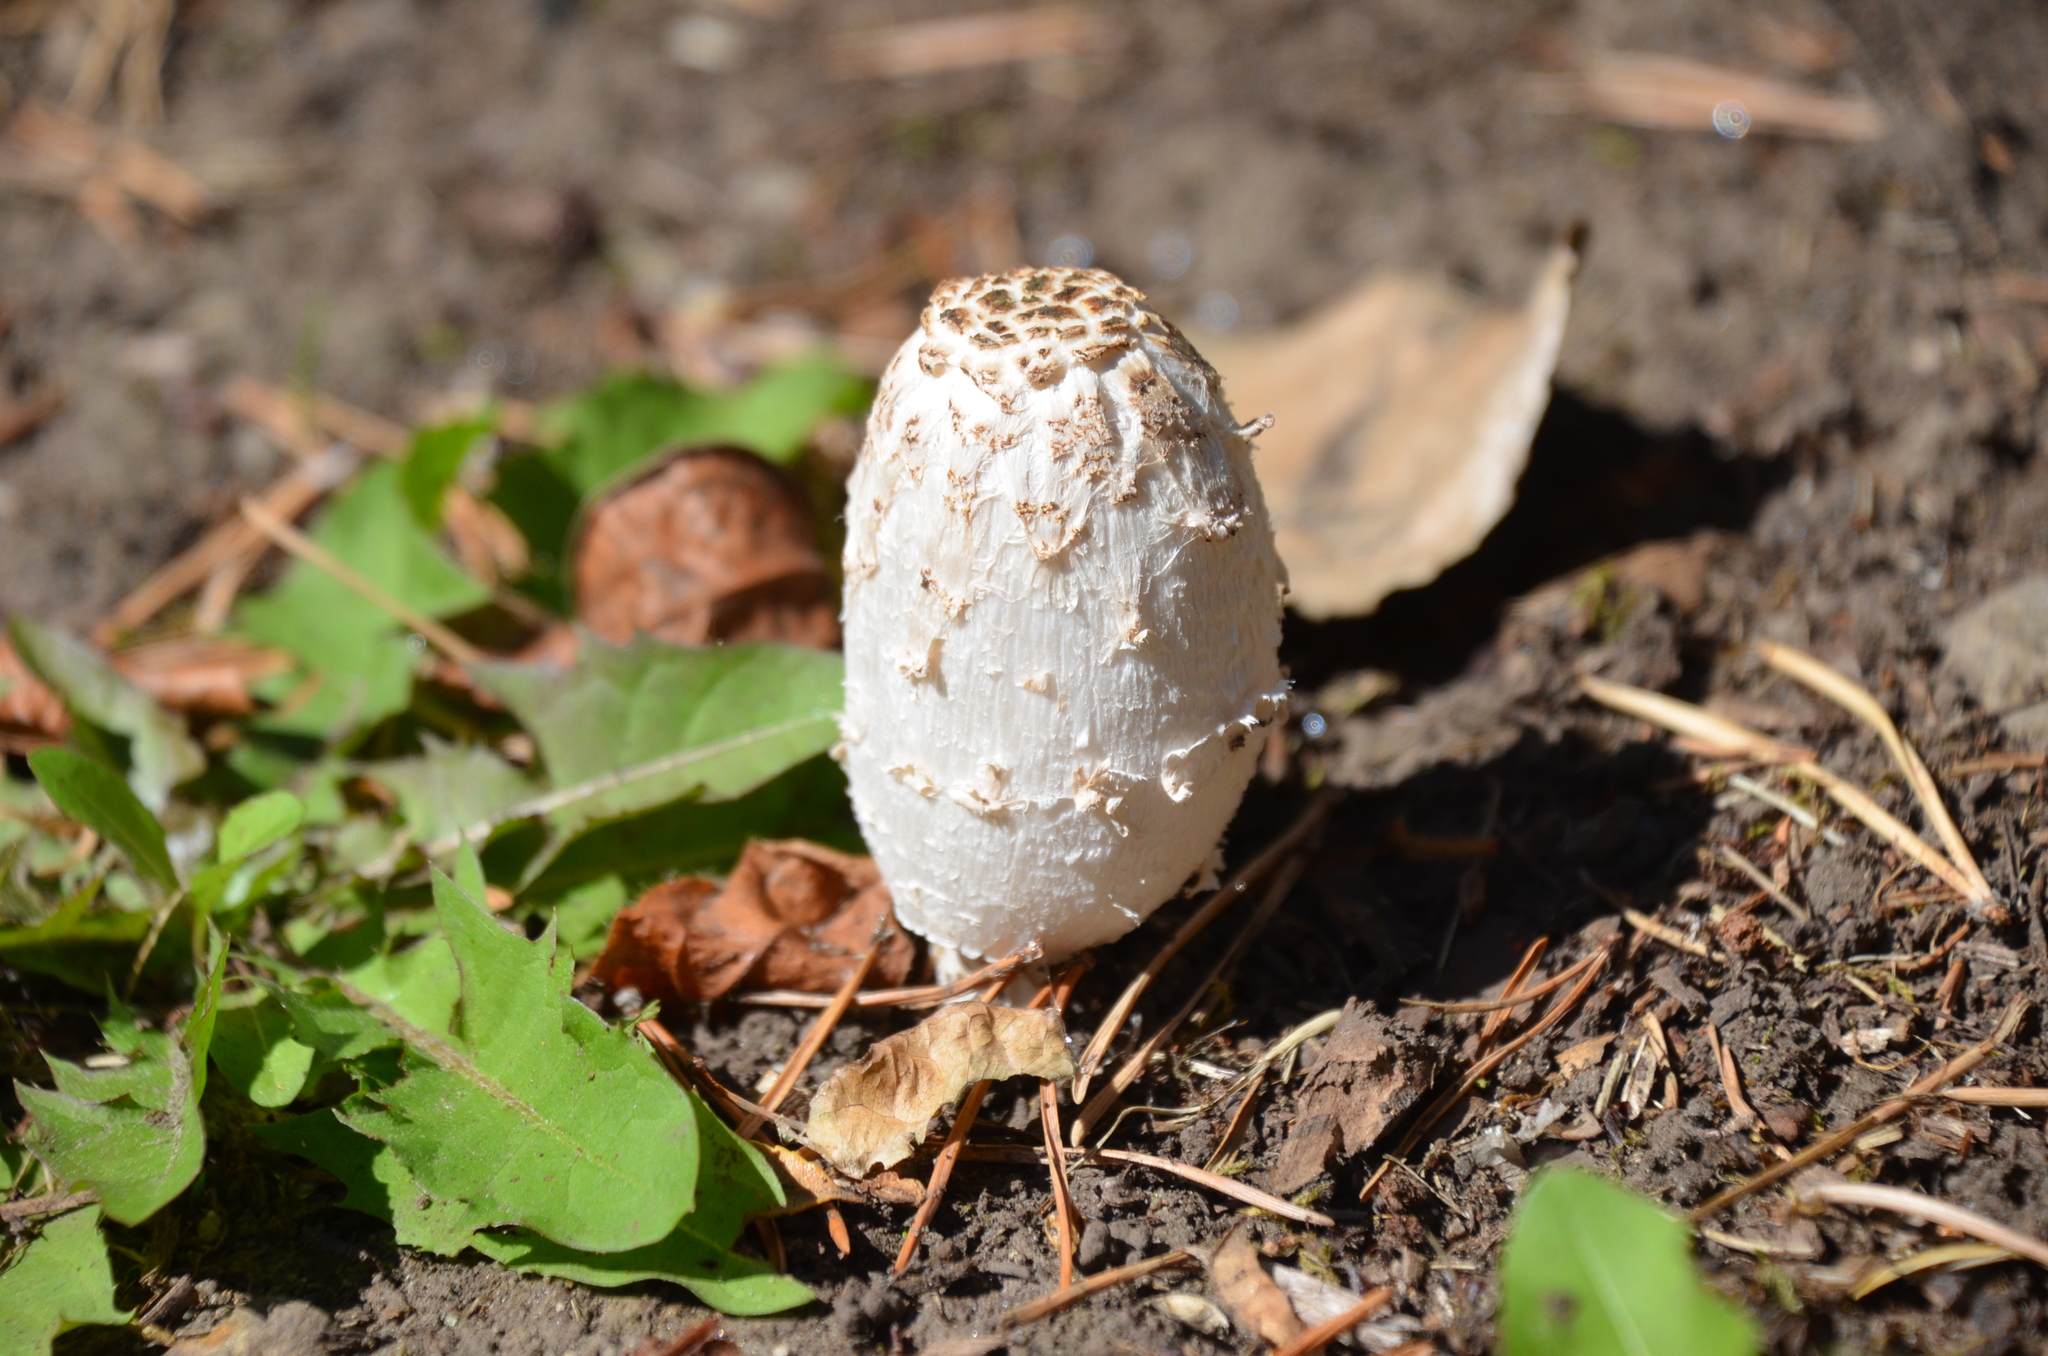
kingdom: Fungi
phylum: Basidiomycota
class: Agaricomycetes
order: Agaricales
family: Agaricaceae
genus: Coprinus
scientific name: Coprinus comatus
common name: Lawyer's wig
